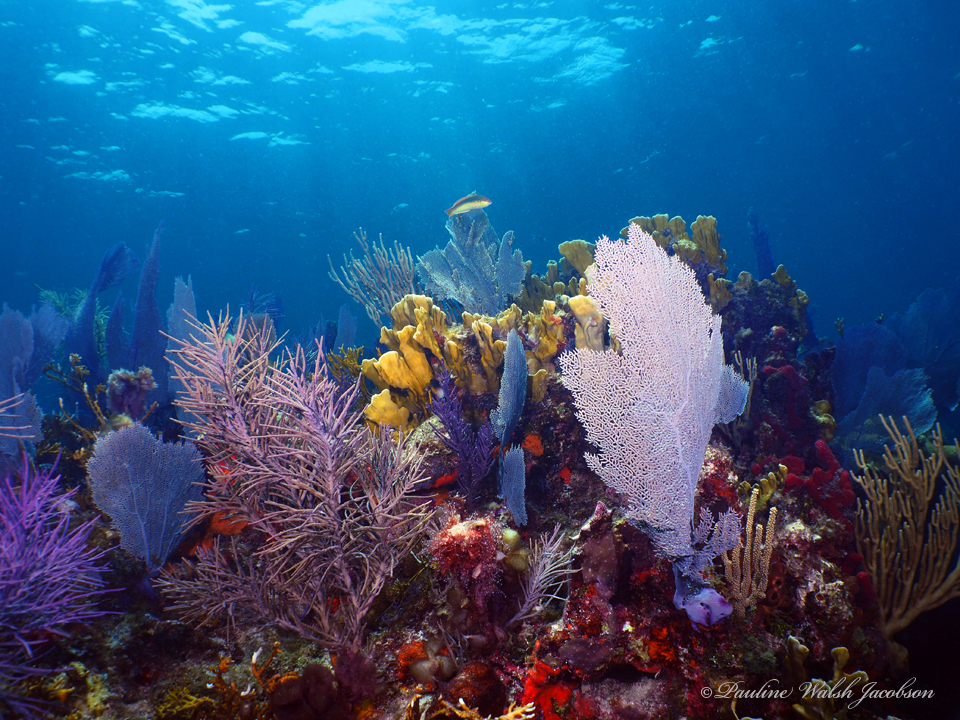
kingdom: Animalia
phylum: Cnidaria
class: Anthozoa
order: Malacalcyonacea
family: Gorgoniidae
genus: Gorgonia
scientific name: Gorgonia ventalina
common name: Common sea fan
